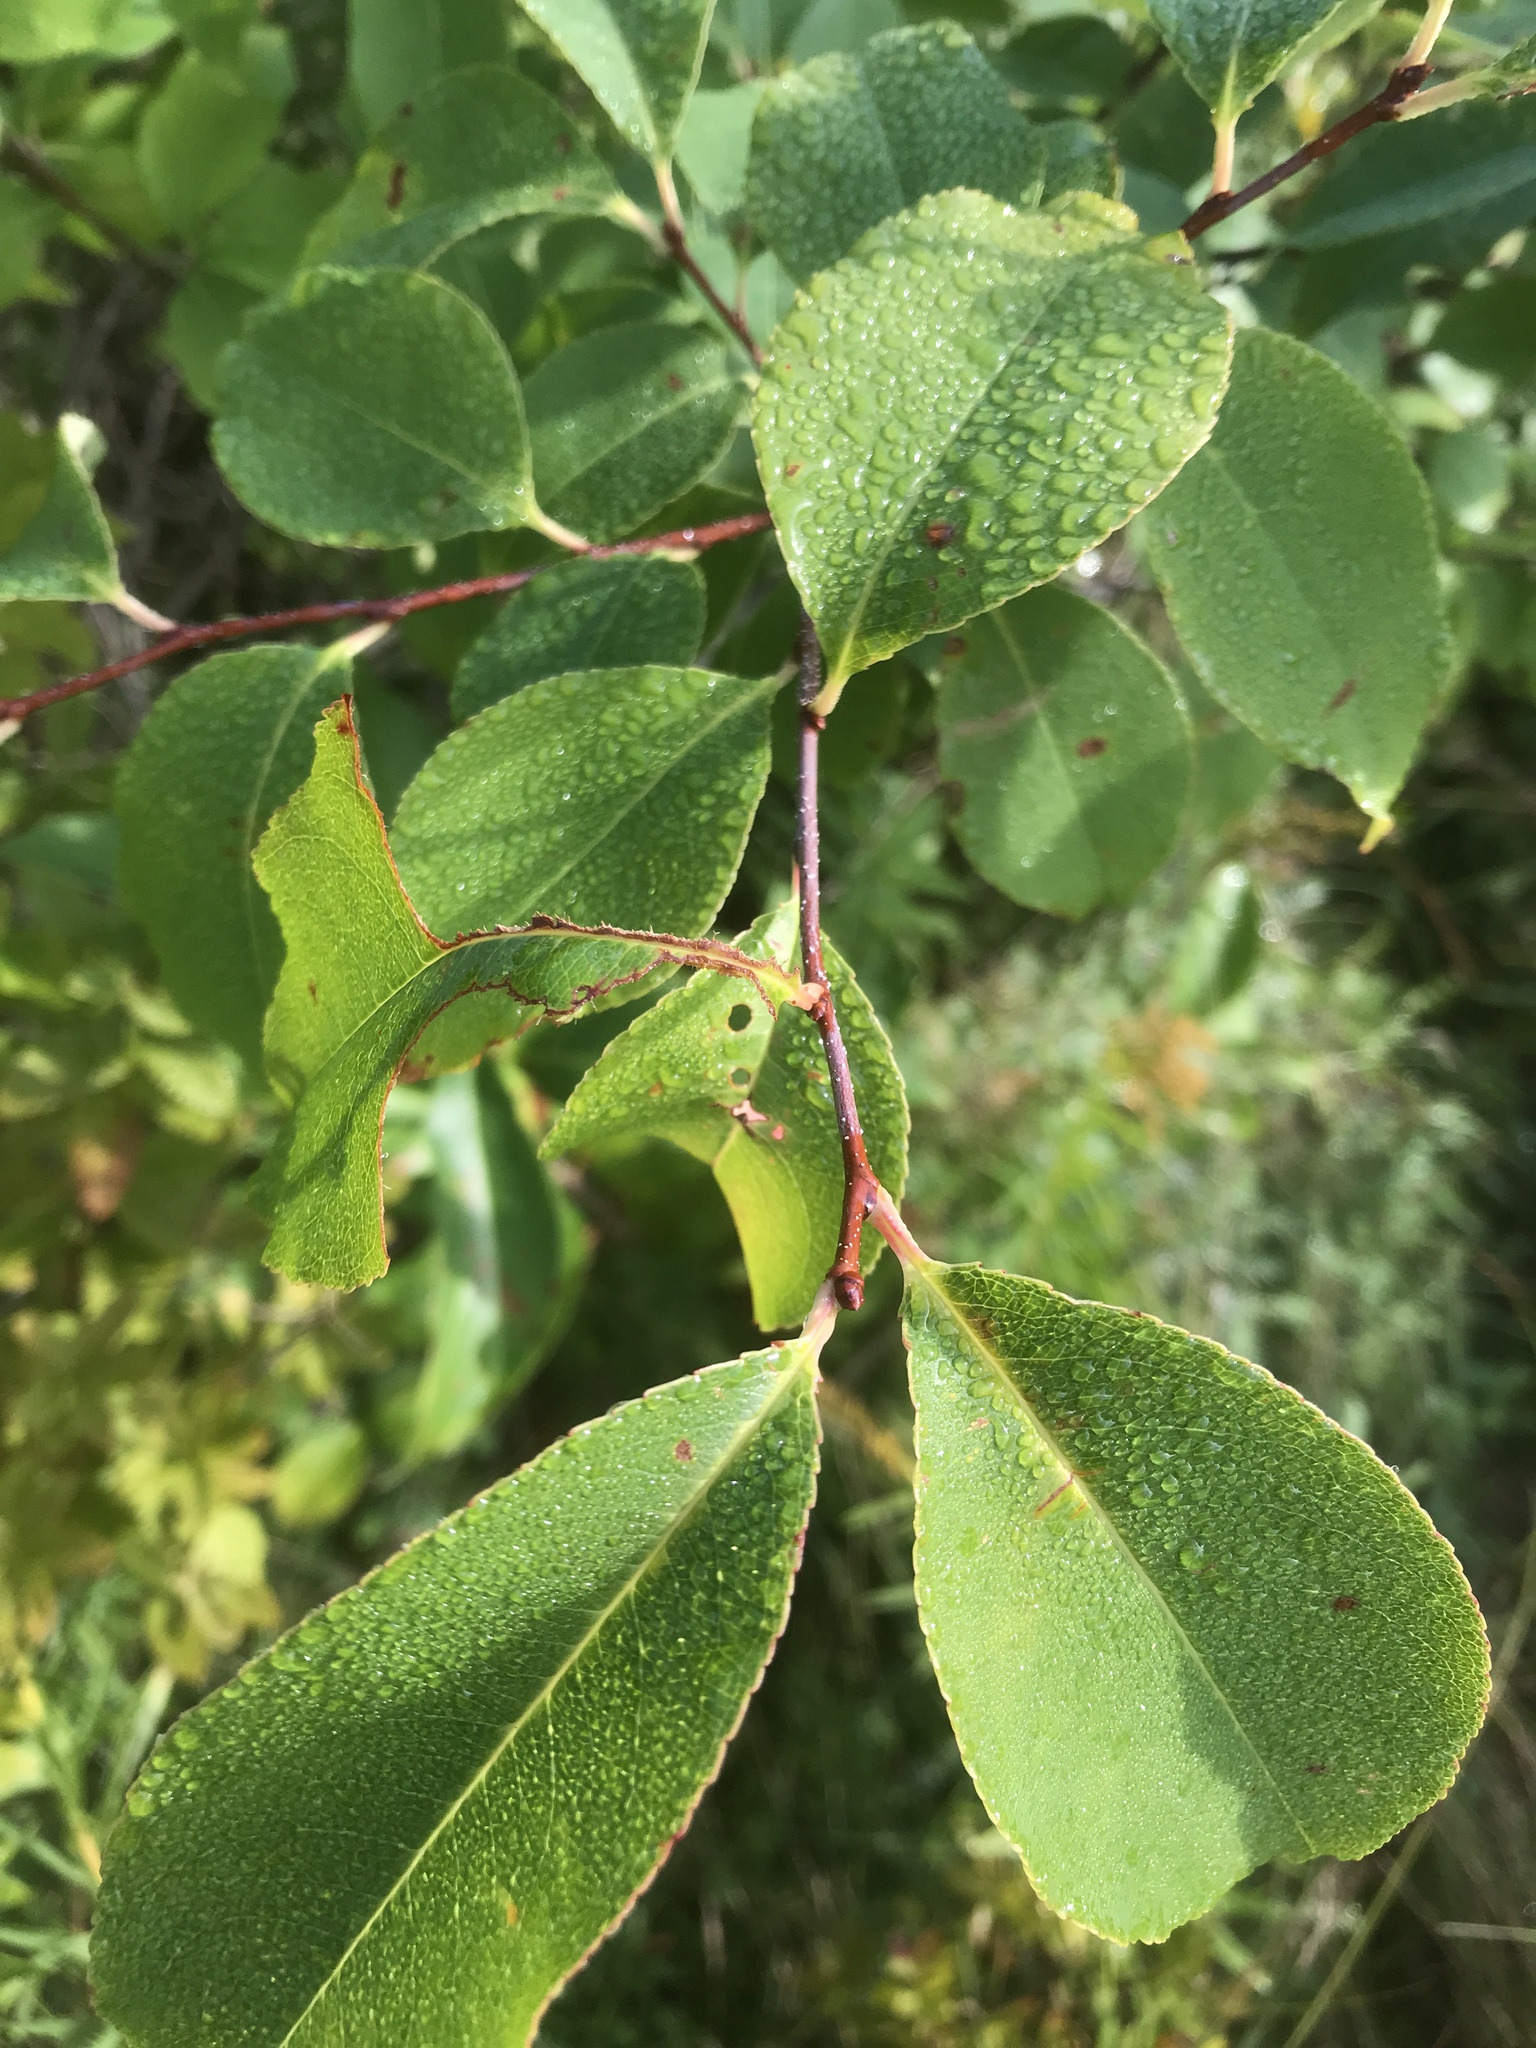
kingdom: Plantae
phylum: Tracheophyta
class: Magnoliopsida
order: Rosales
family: Rosaceae
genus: Prunus
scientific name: Prunus serotina
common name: Black cherry
